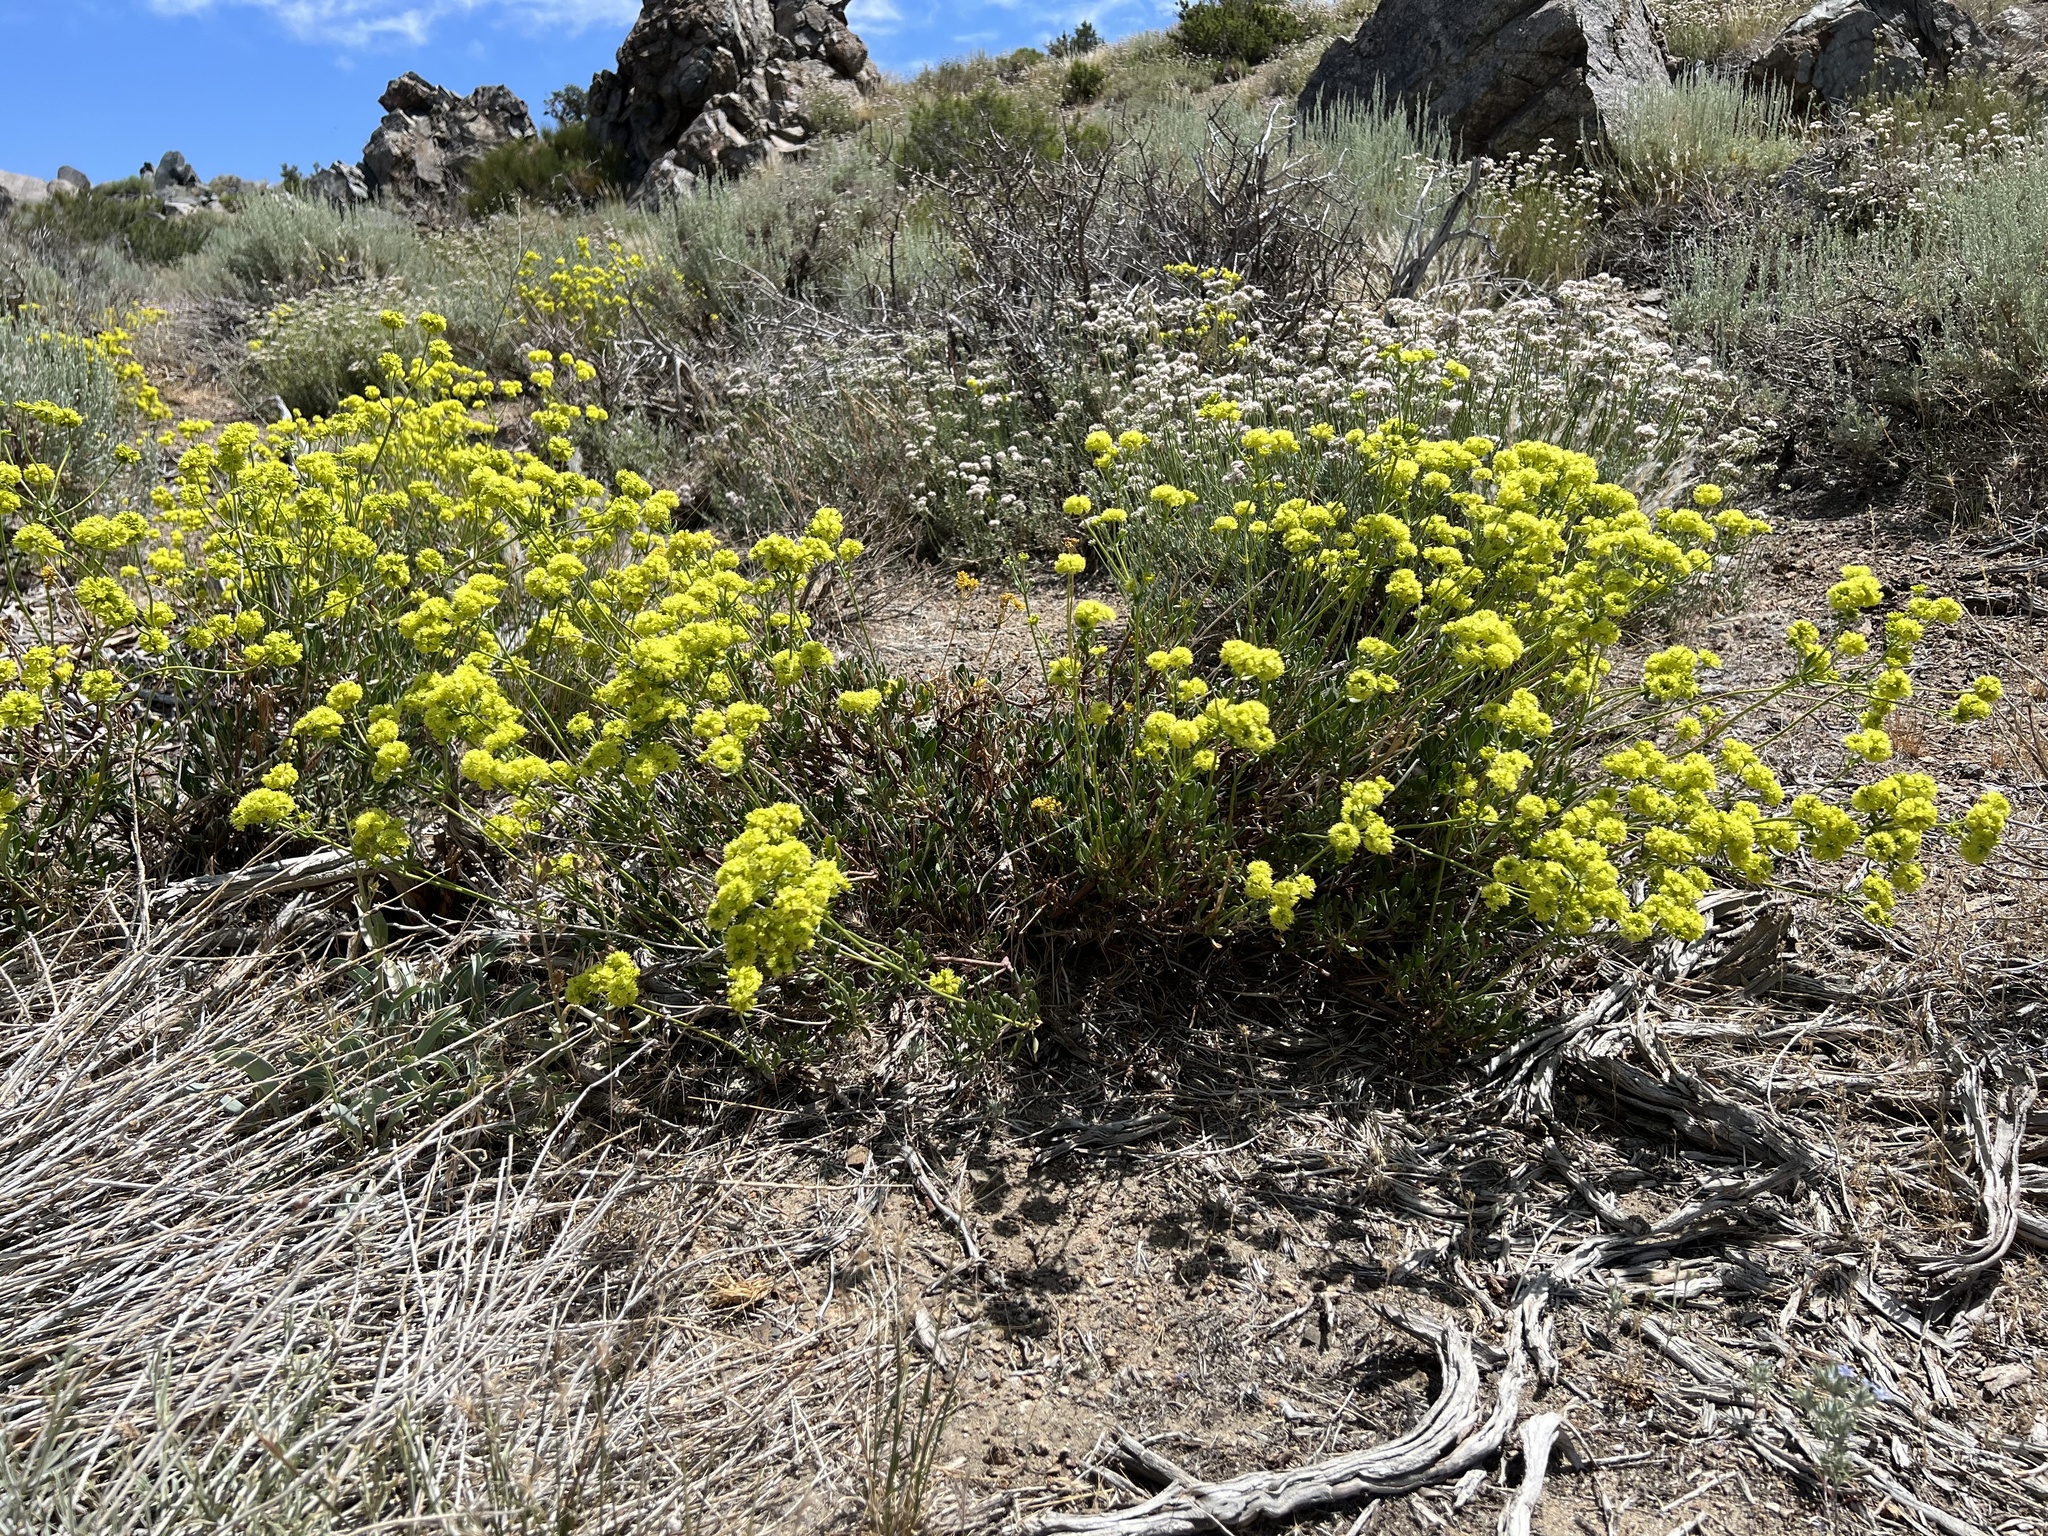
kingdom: Plantae
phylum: Tracheophyta
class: Magnoliopsida
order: Caryophyllales
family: Polygonaceae
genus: Eriogonum
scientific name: Eriogonum umbellatum
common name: Sulfur-buckwheat
